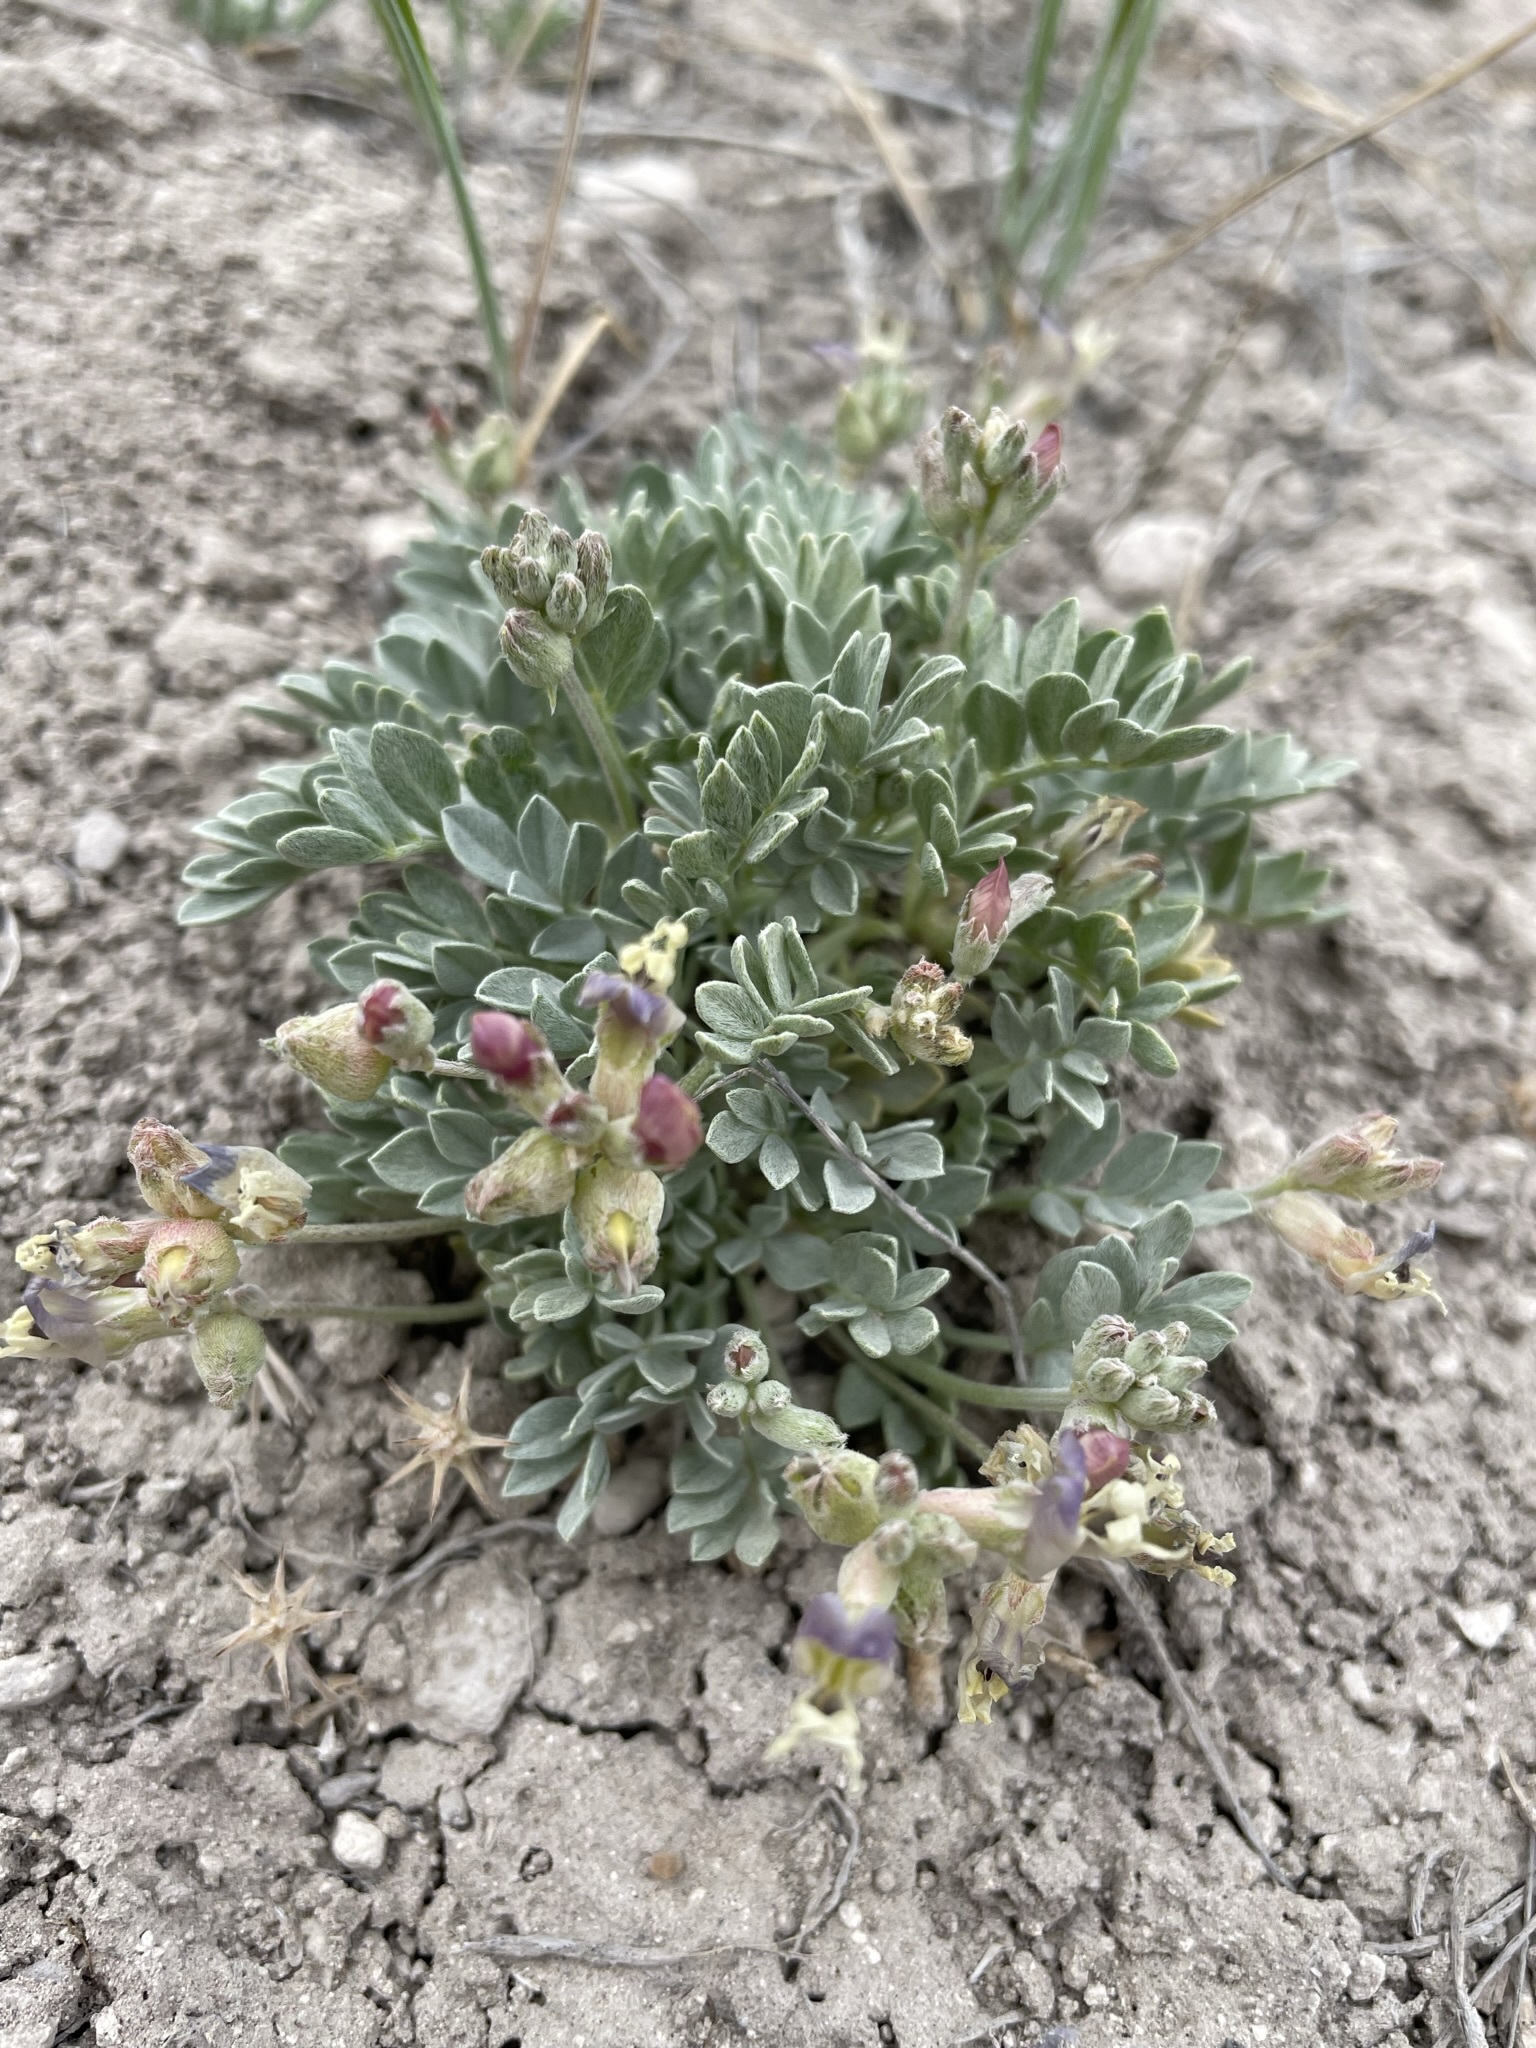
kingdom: Plantae
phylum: Tracheophyta
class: Magnoliopsida
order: Fabales
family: Fabaceae
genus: Astragalus
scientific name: Astragalus calycosus
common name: King's milkvetch
